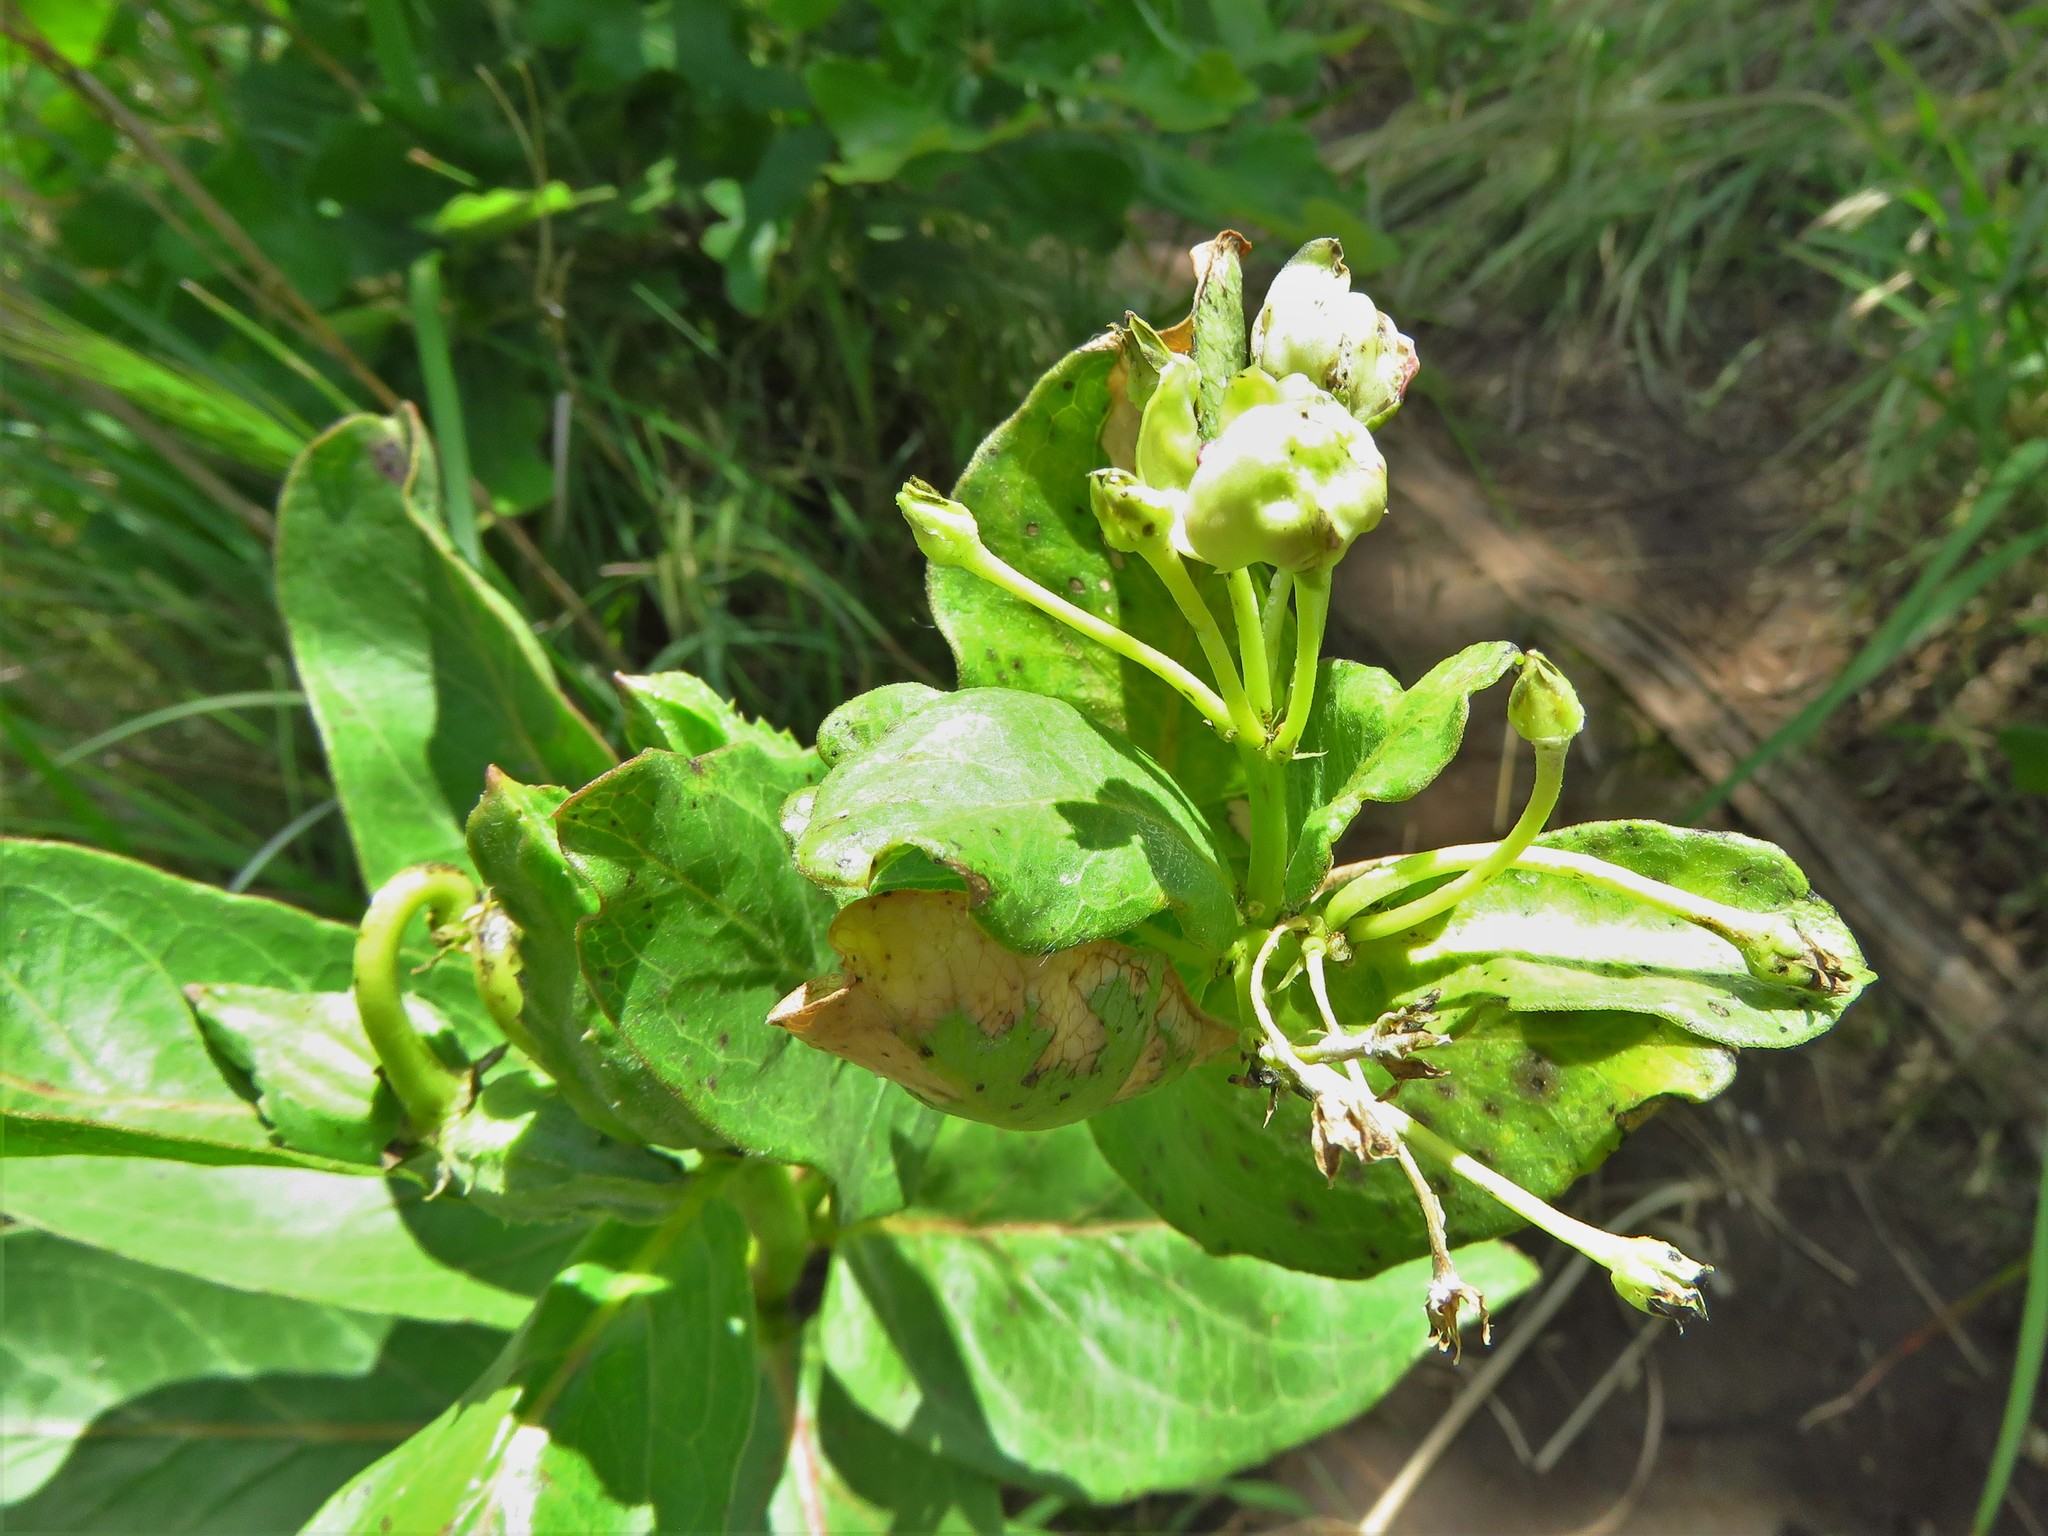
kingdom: Plantae
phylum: Tracheophyta
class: Magnoliopsida
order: Gentianales
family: Apocynaceae
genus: Asclepias
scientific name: Asclepias viridis
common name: Antelope-horns
